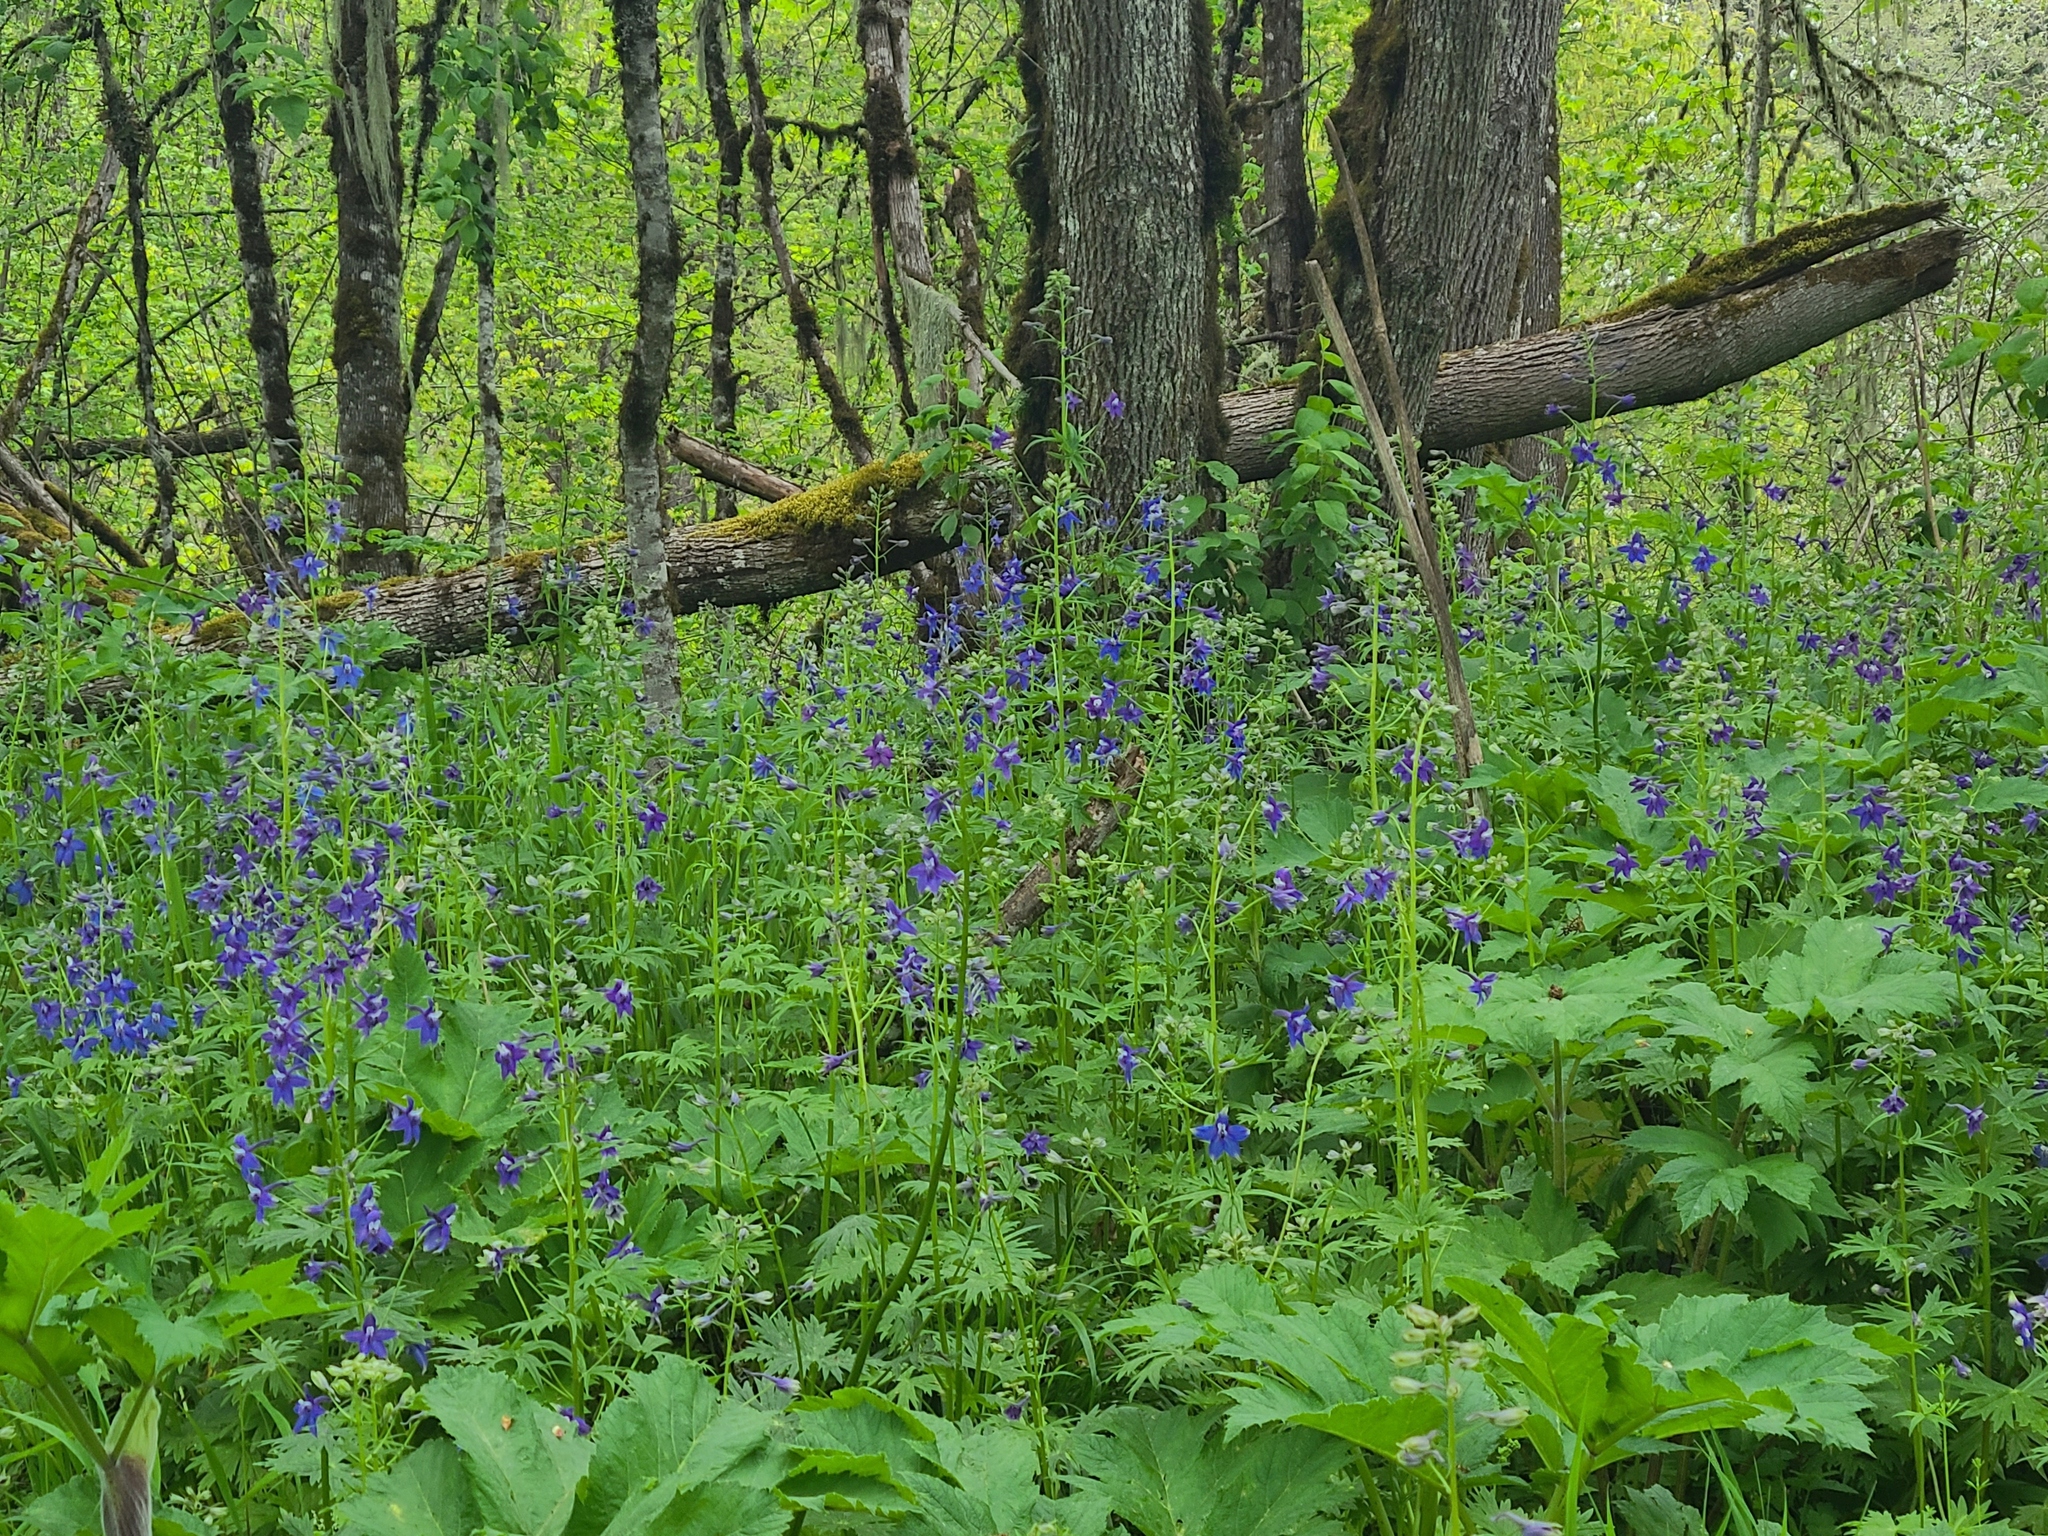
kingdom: Plantae
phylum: Tracheophyta
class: Magnoliopsida
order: Ranunculales
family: Ranunculaceae
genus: Delphinium
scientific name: Delphinium trolliifolium
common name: Cow-poison
